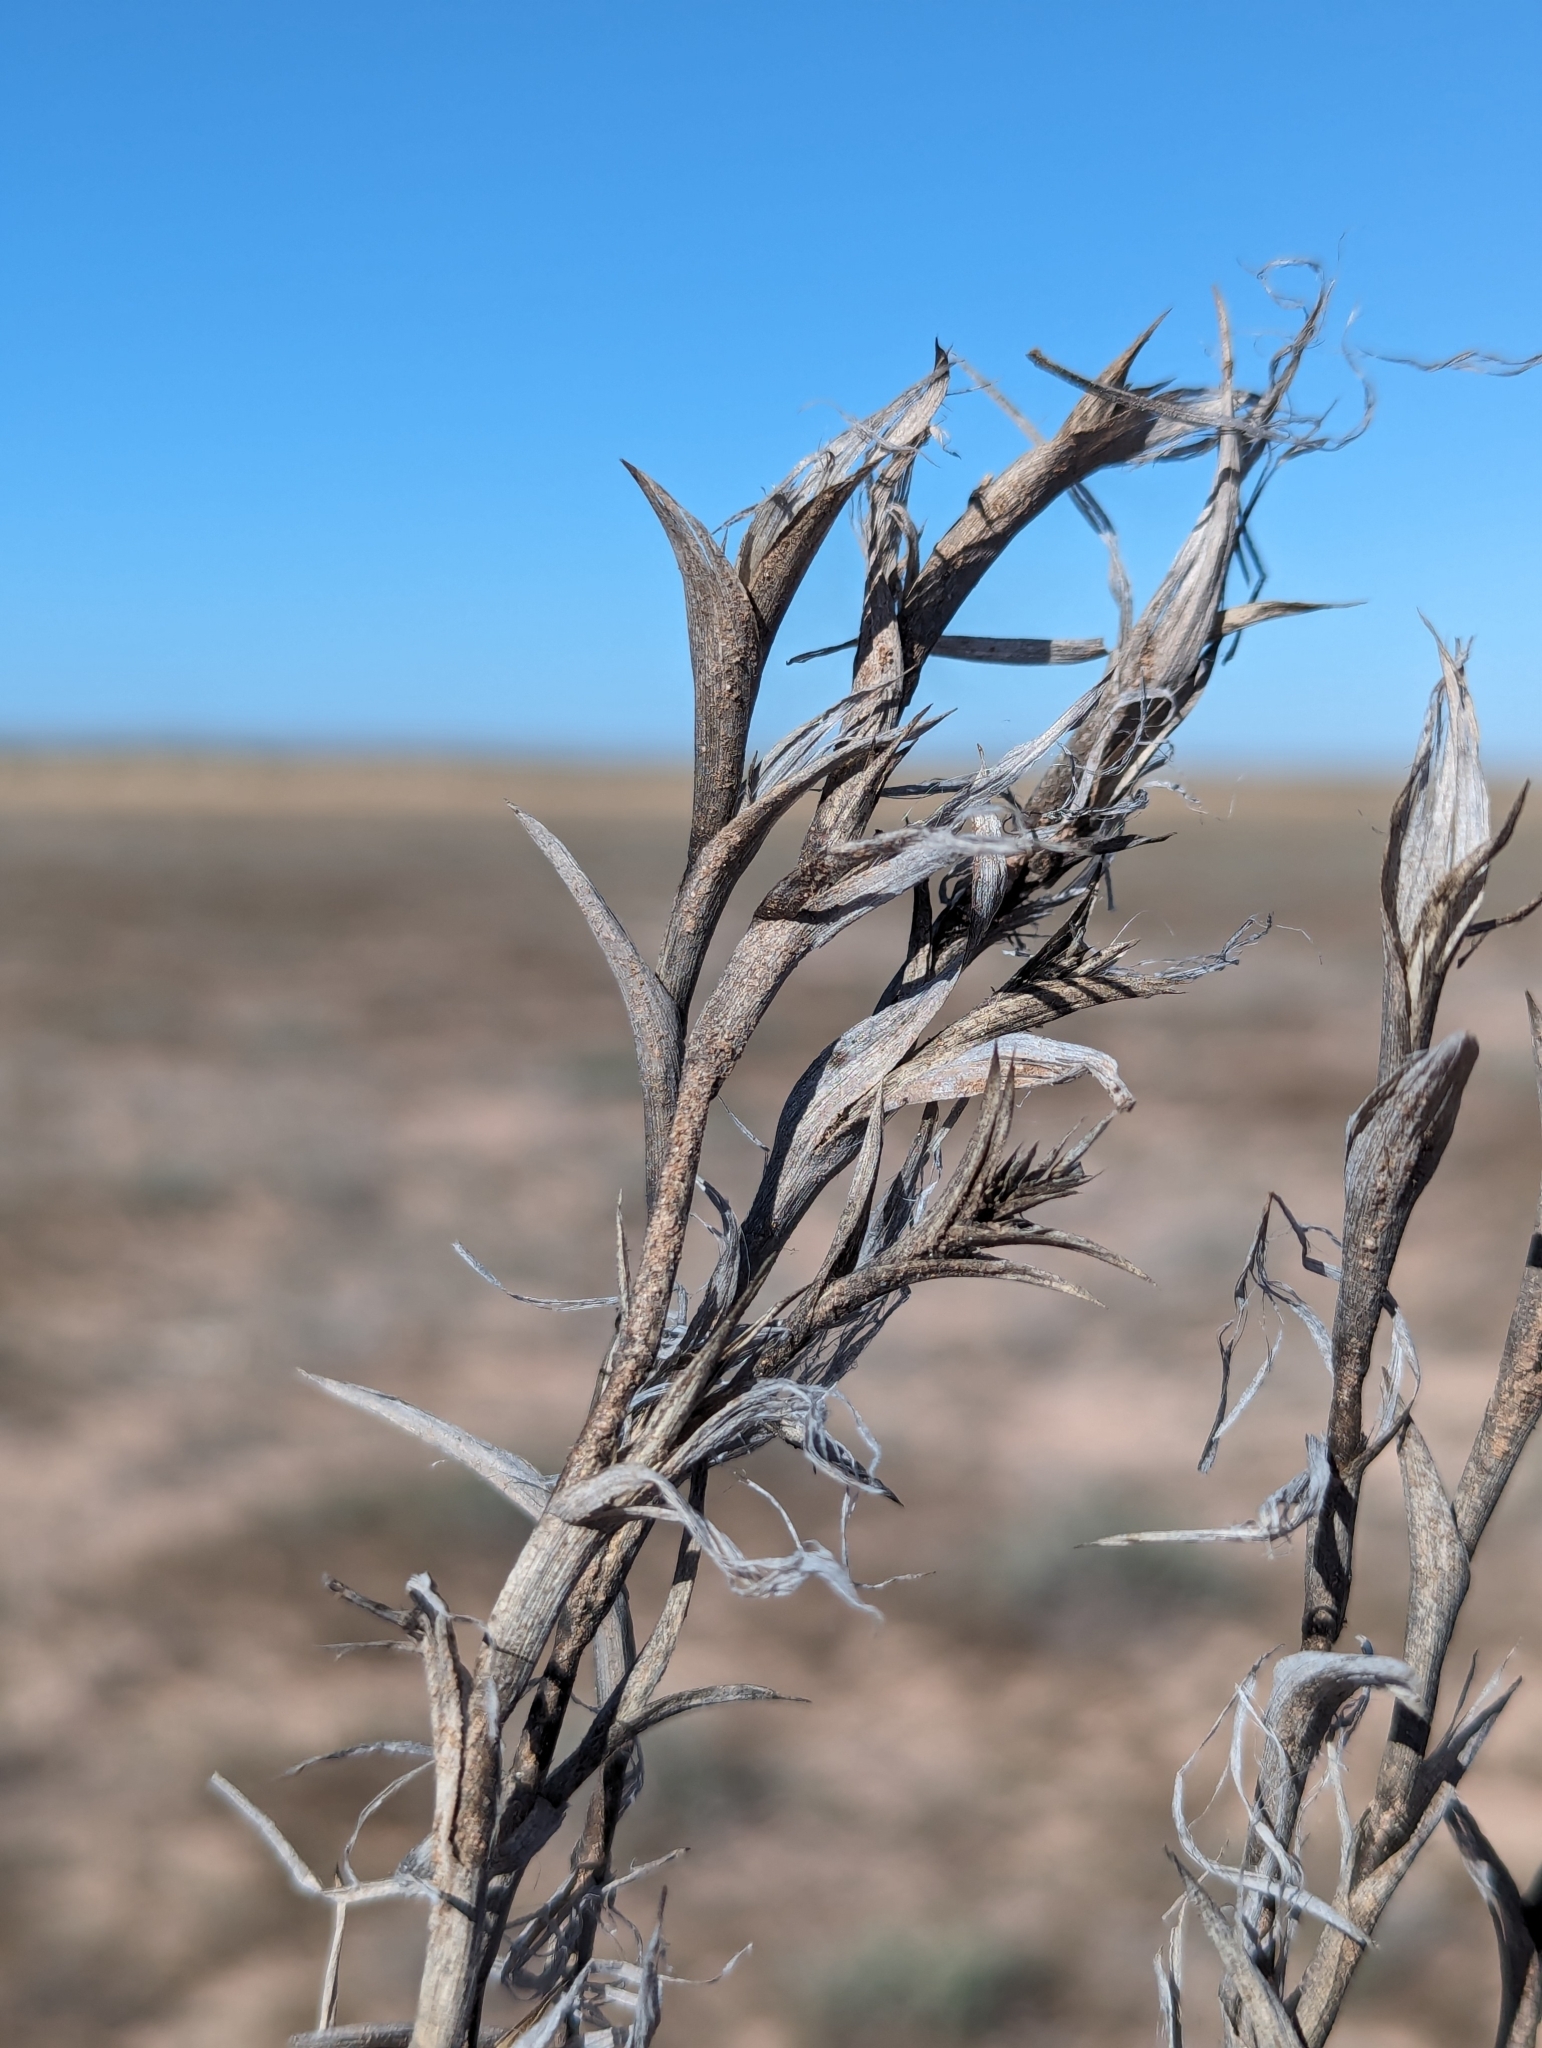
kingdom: Plantae
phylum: Tracheophyta
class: Liliopsida
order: Poales
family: Poaceae
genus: Tuctoria
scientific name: Tuctoria fragilis
